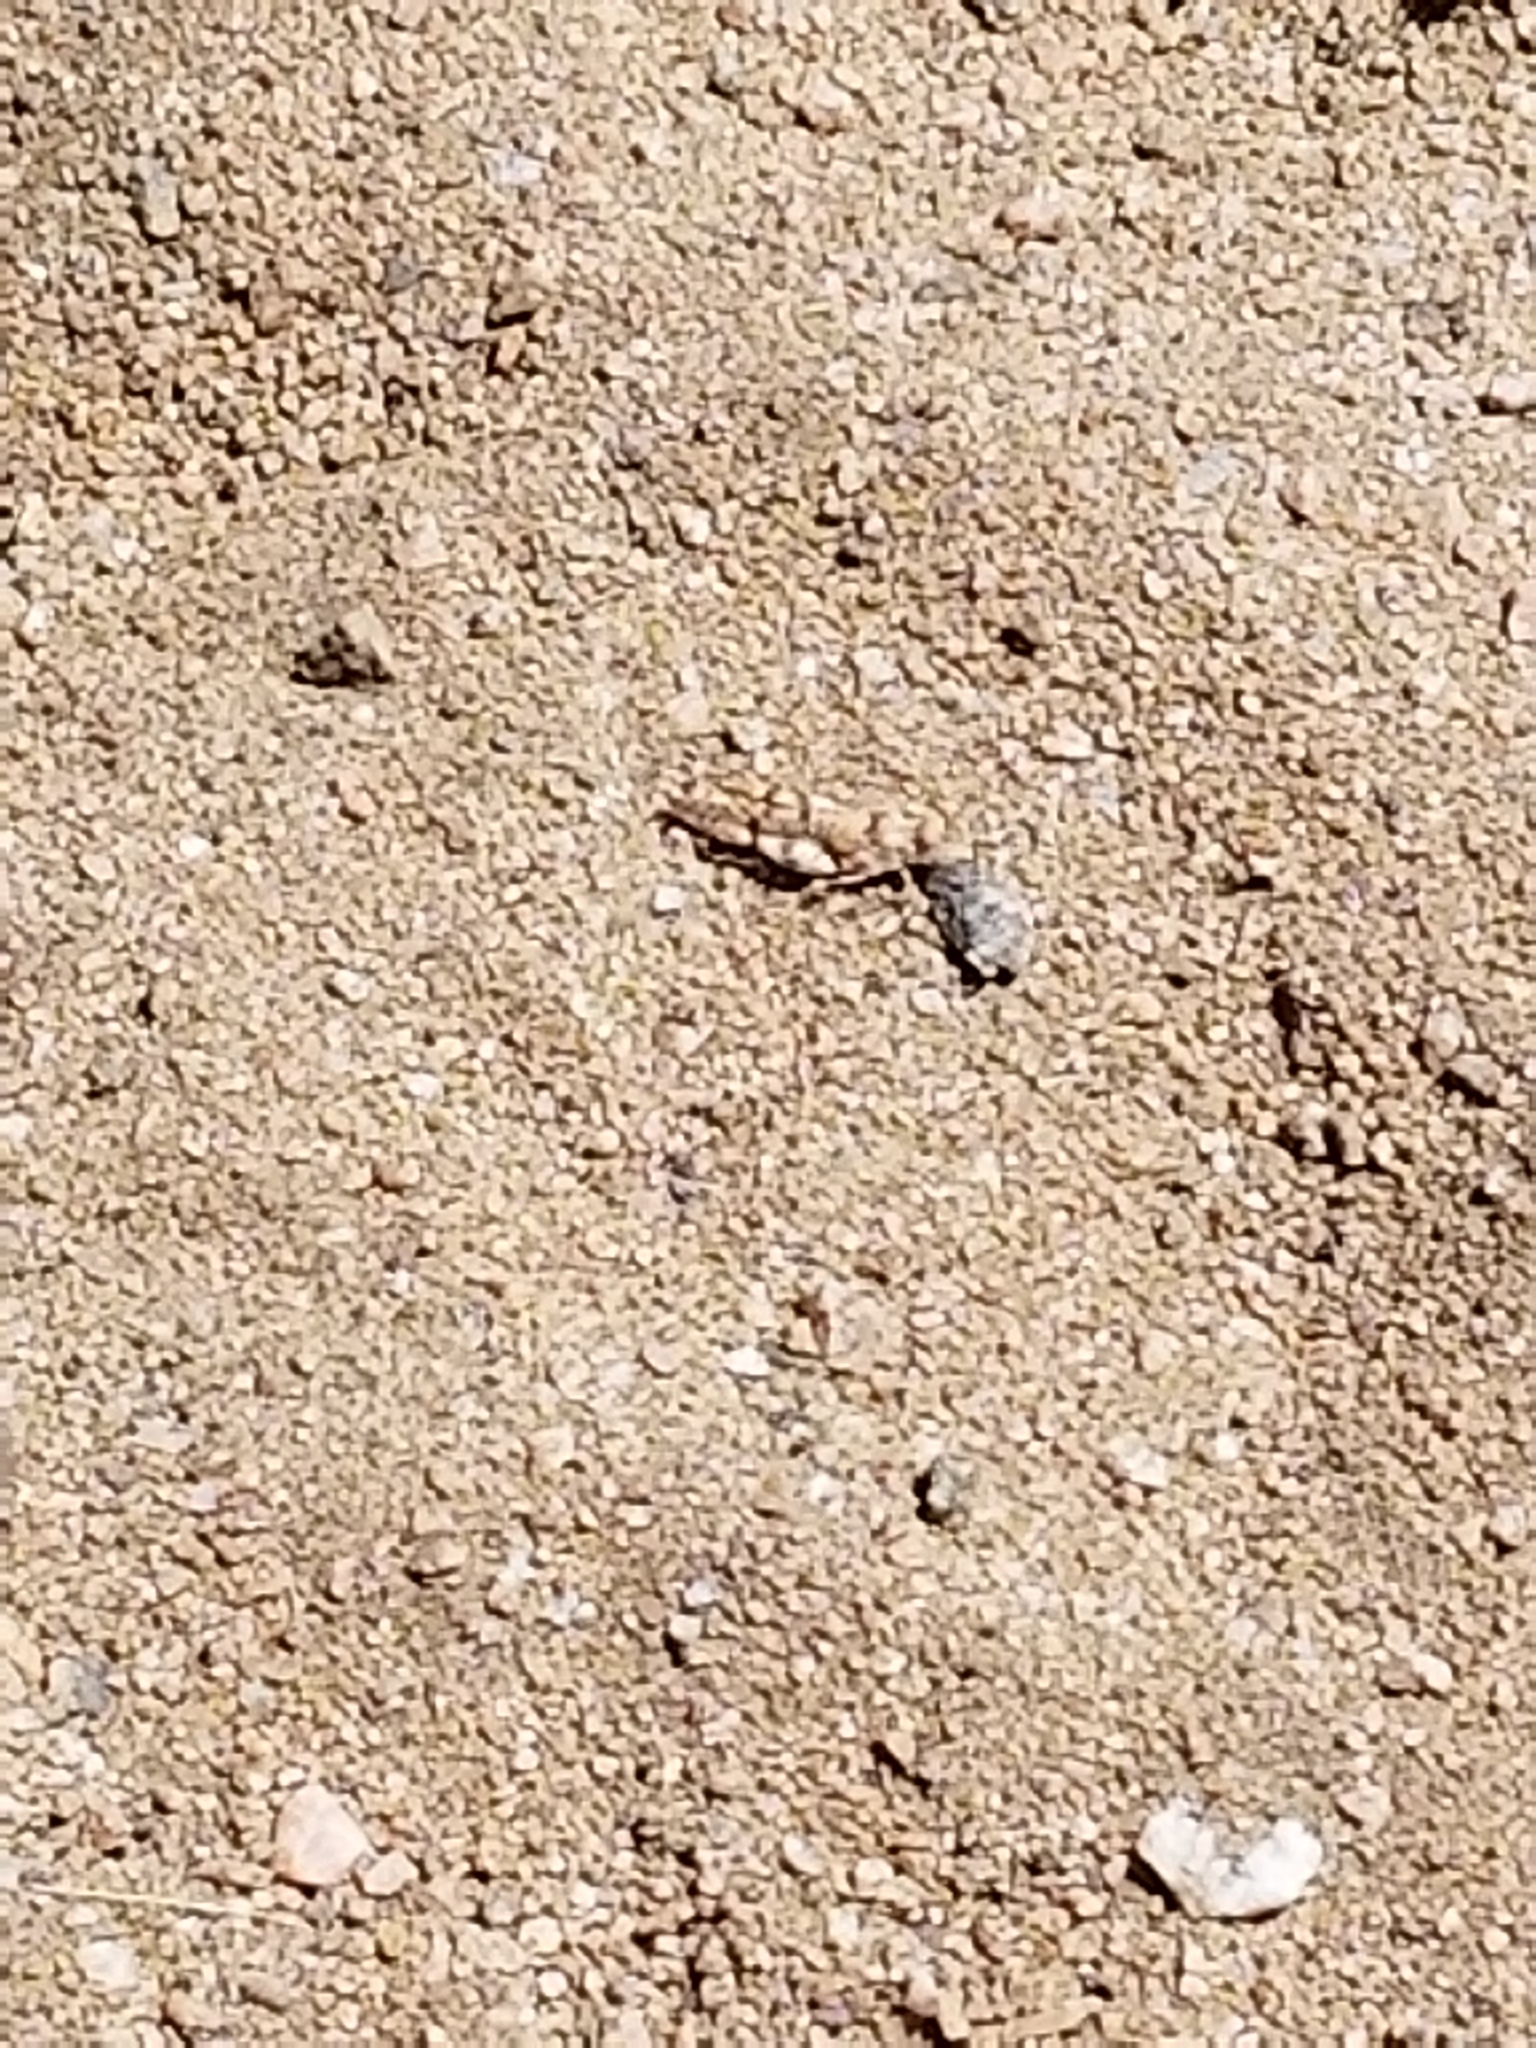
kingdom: Animalia
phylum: Arthropoda
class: Insecta
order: Orthoptera
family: Acrididae
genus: Cibolacris
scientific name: Cibolacris parviceps
